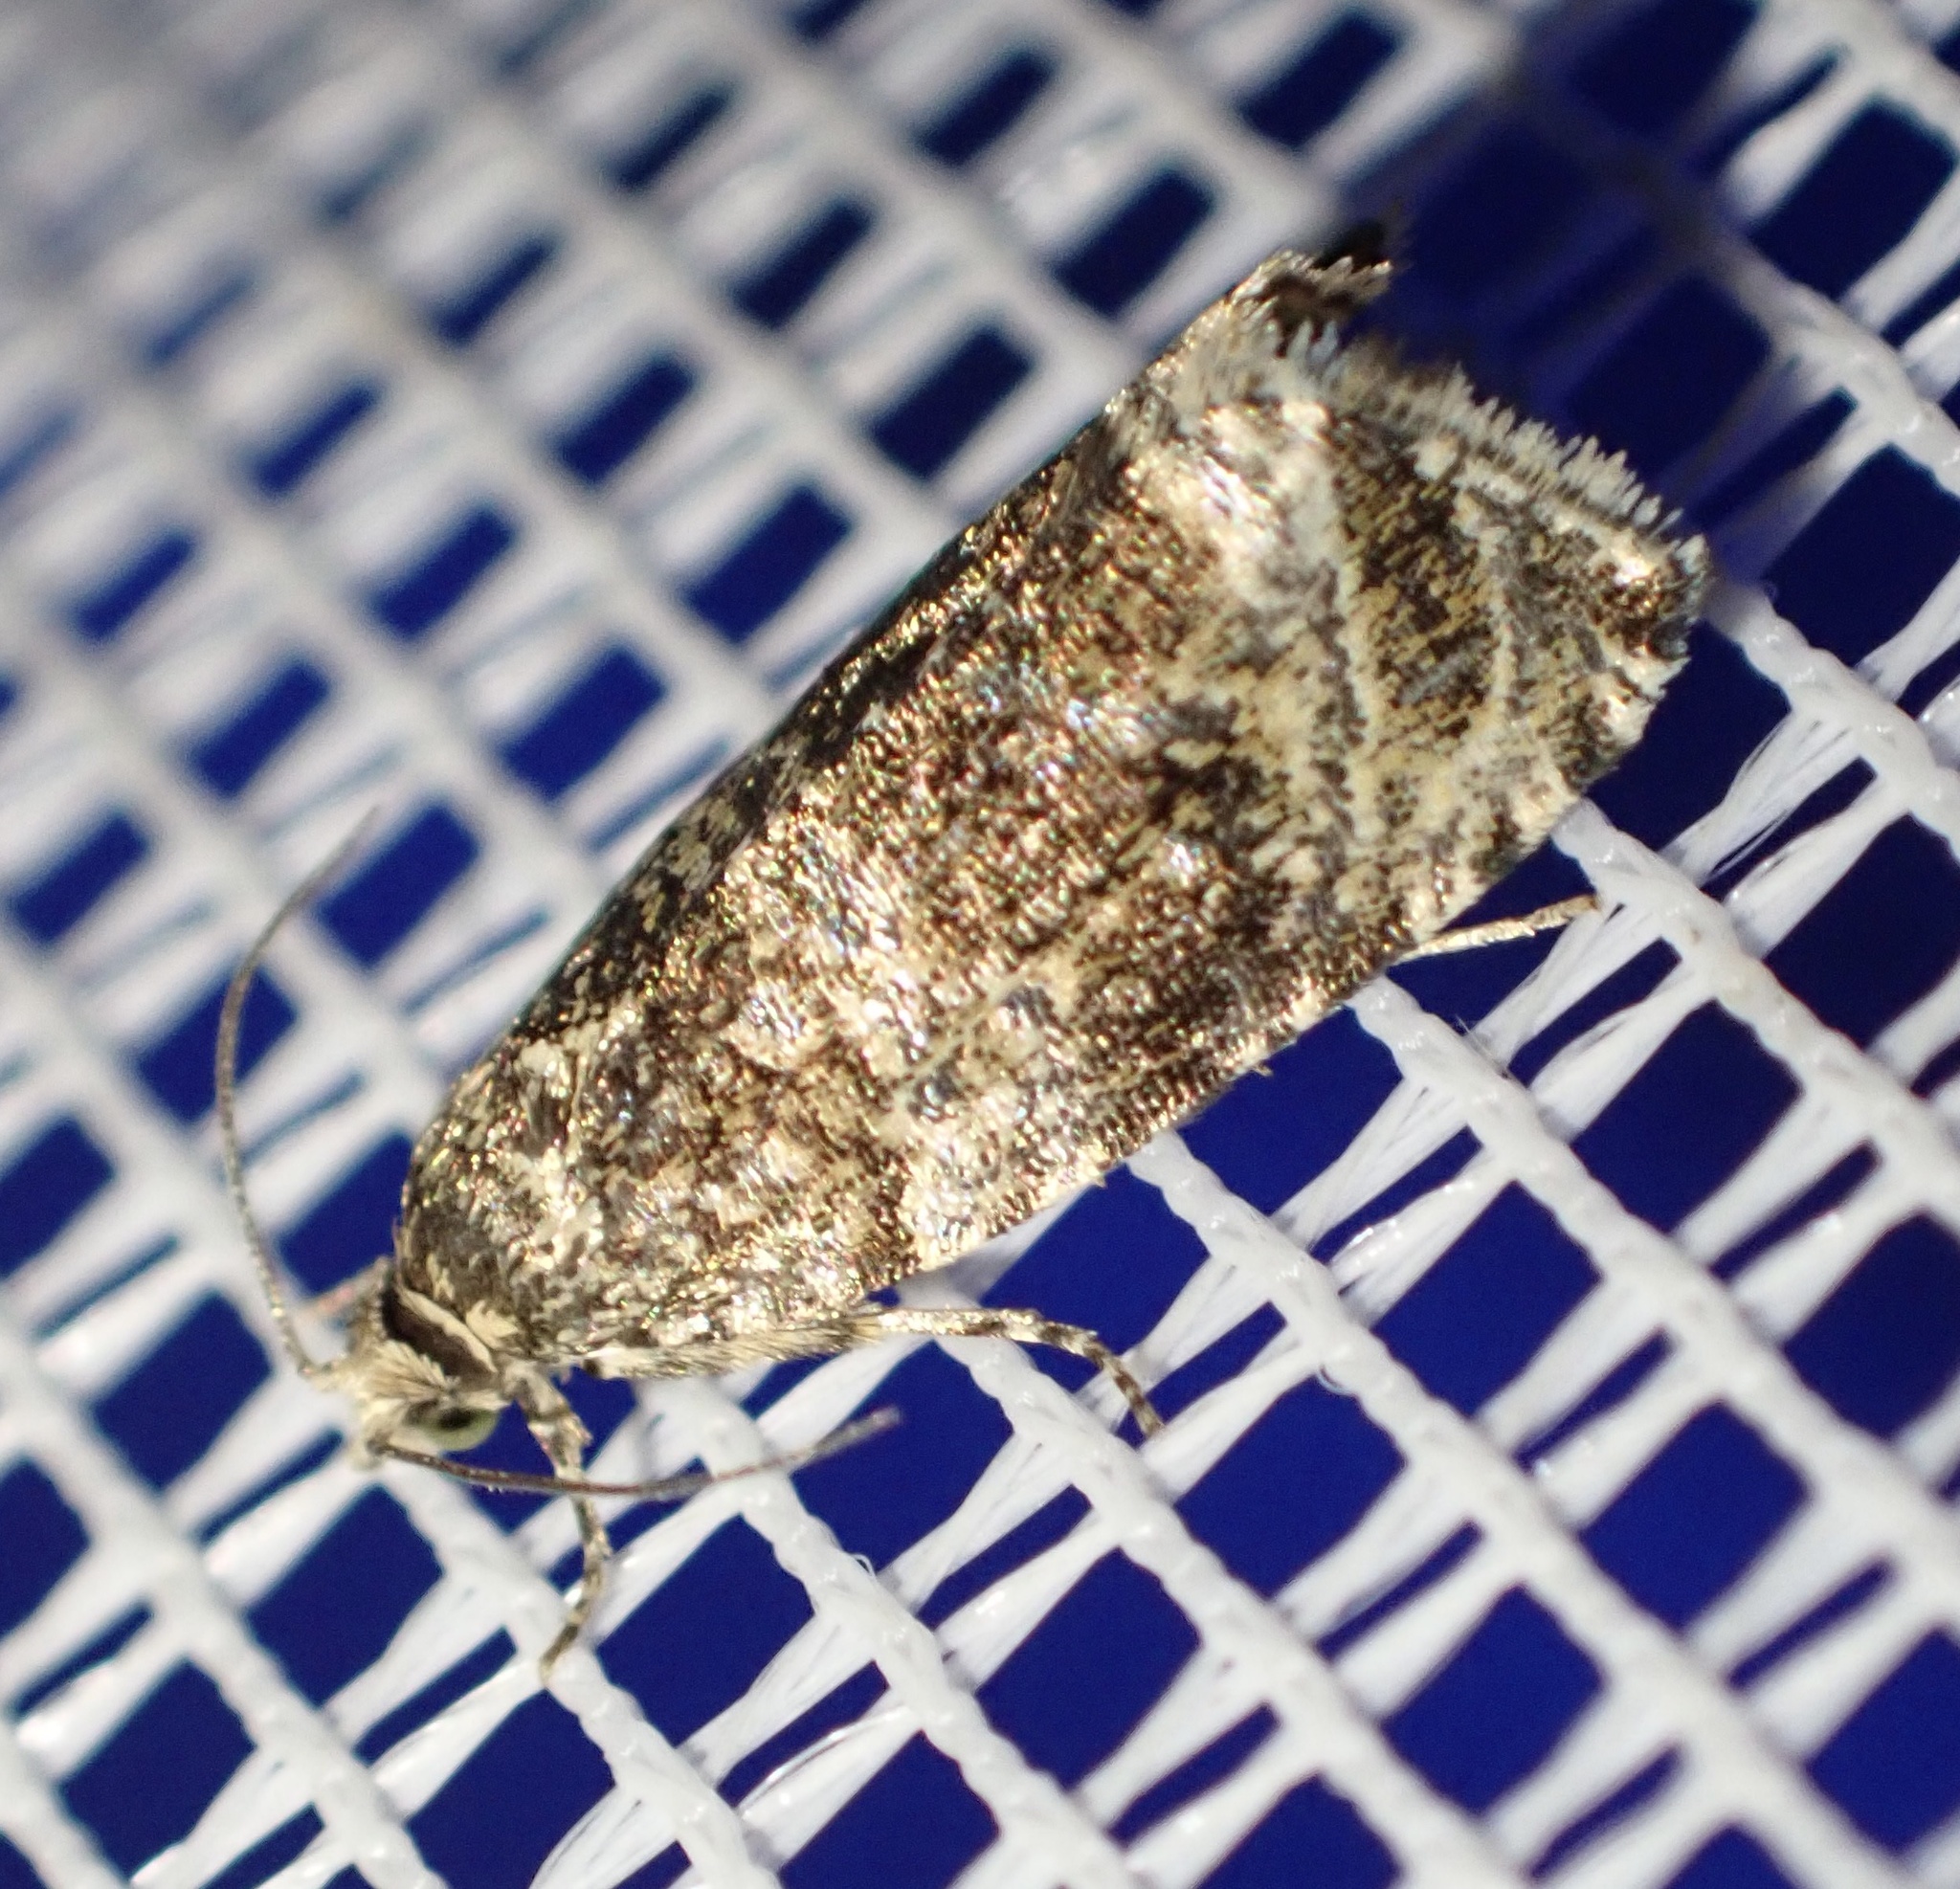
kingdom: Animalia
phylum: Arthropoda
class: Insecta
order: Lepidoptera
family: Tortricidae
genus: Syricoris
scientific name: Syricoris lacunana
